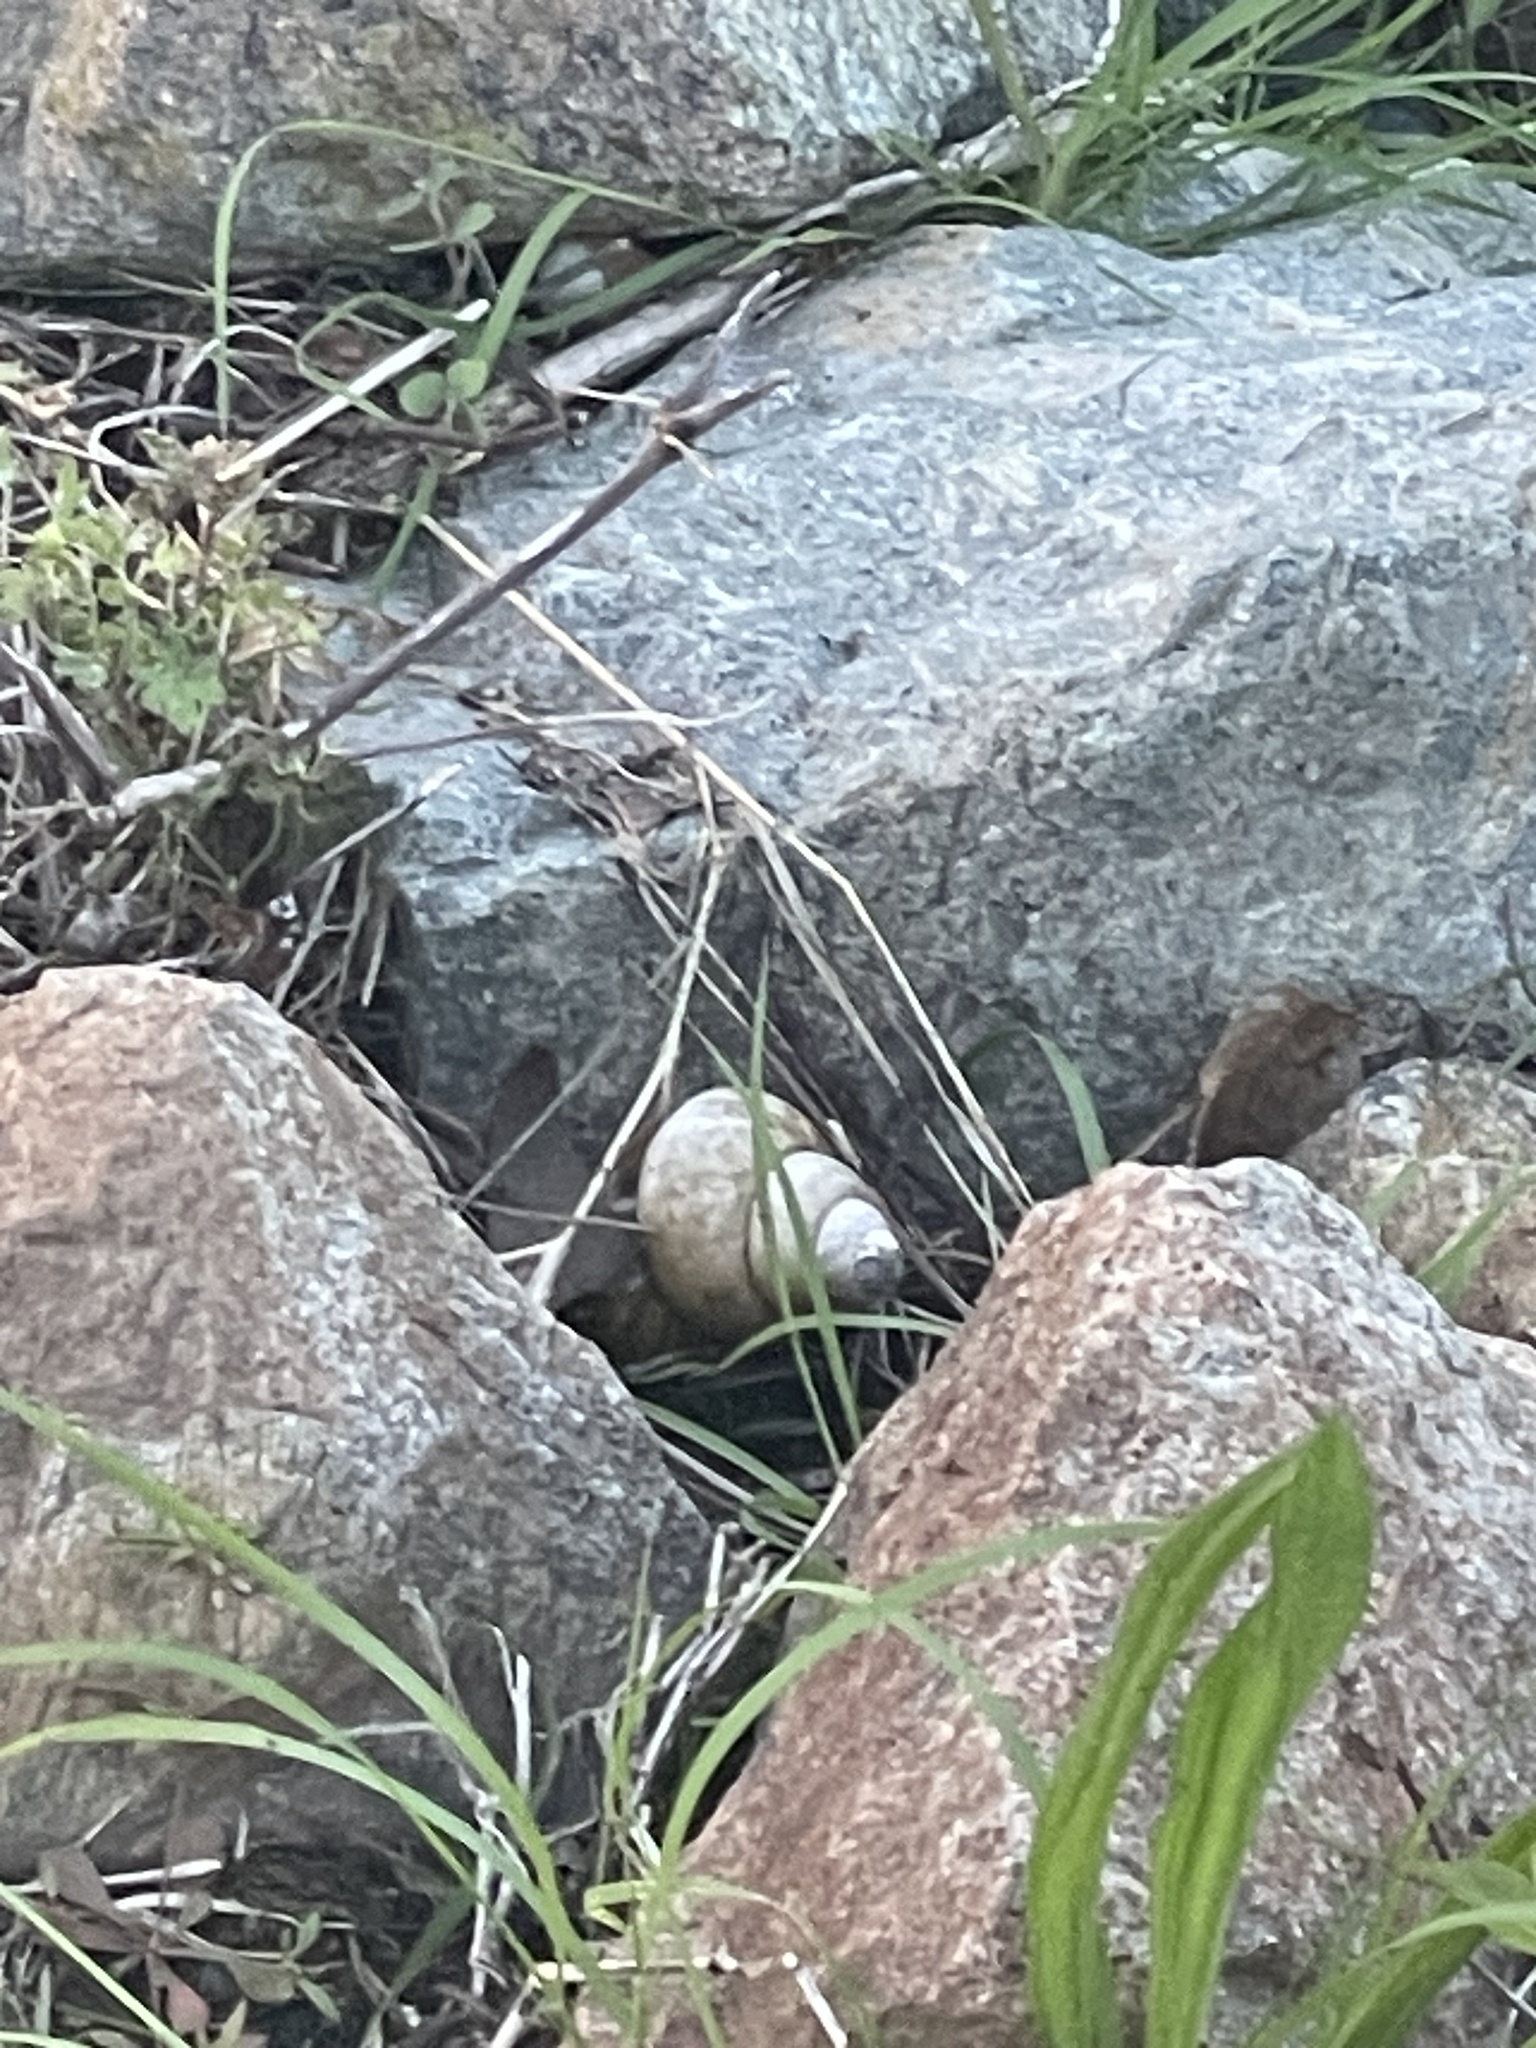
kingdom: Animalia
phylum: Mollusca
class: Gastropoda
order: Architaenioglossa
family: Viviparidae
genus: Cipangopaludina
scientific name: Cipangopaludina chinensis
